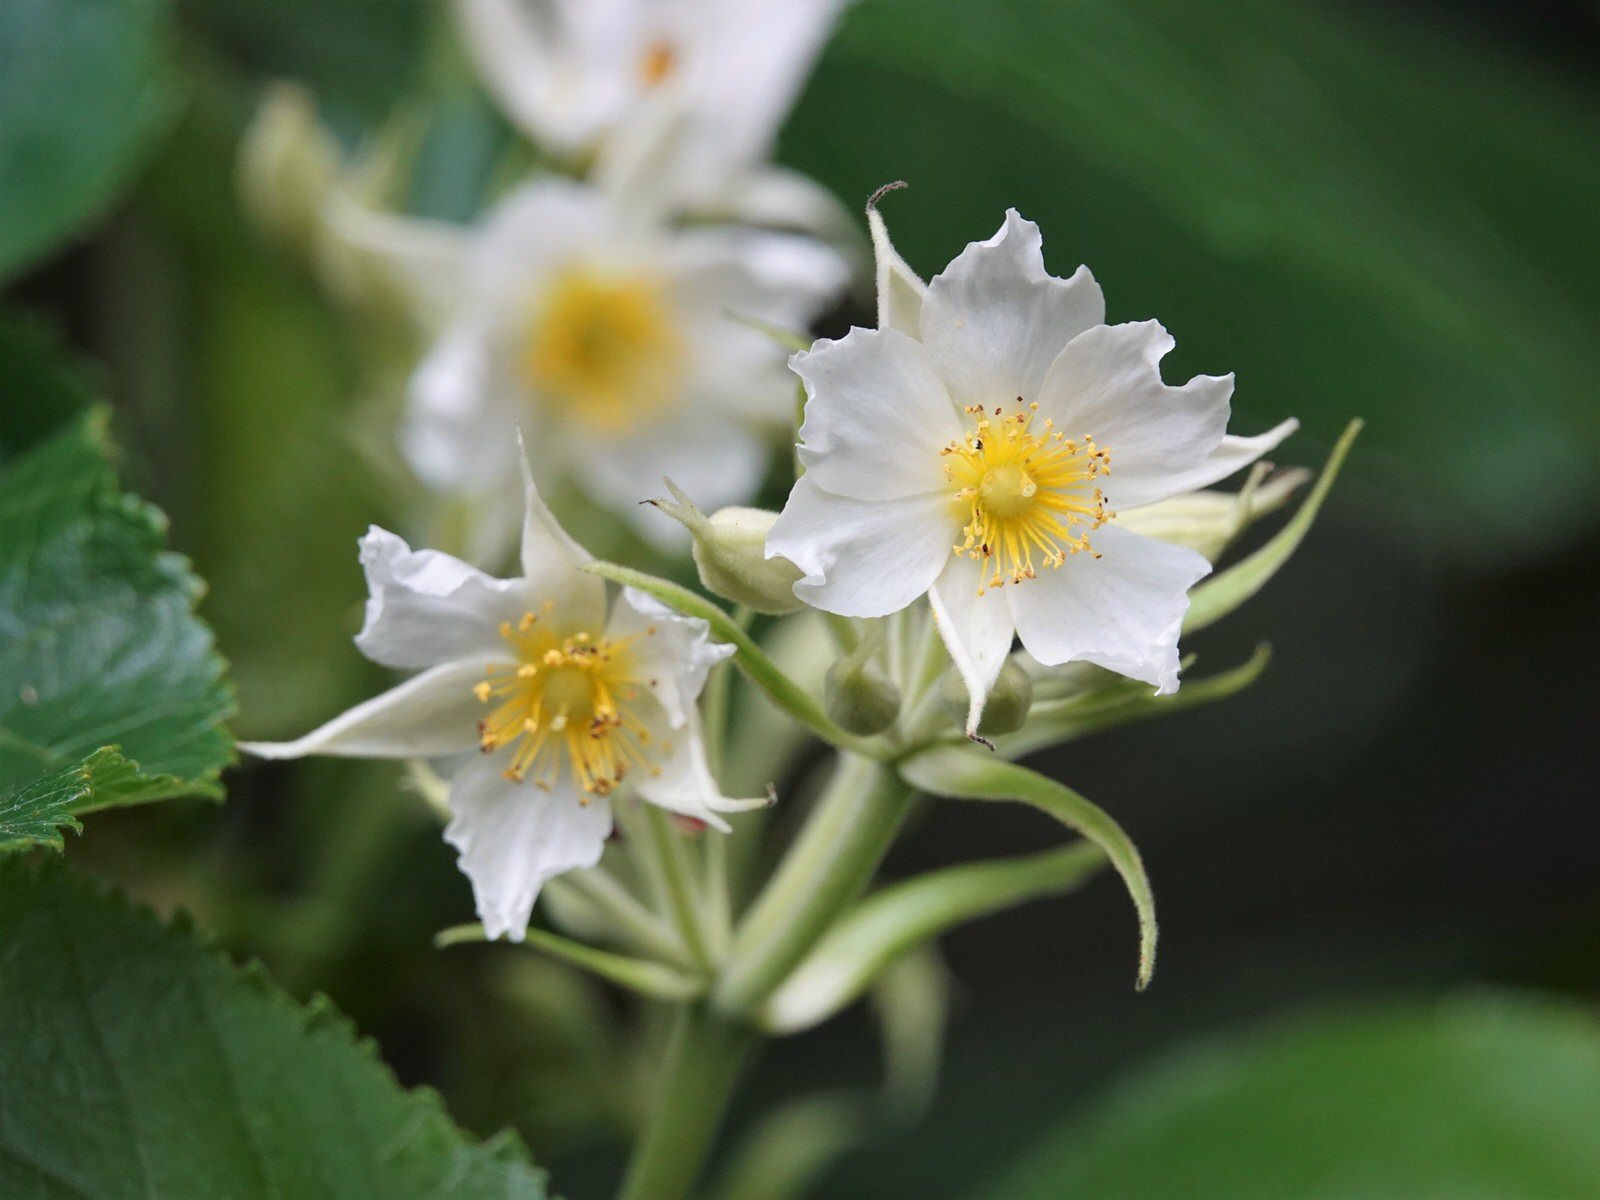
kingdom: Plantae
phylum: Tracheophyta
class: Magnoliopsida
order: Malvales
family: Malvaceae
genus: Entelea
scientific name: Entelea arborescens
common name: New zealand-mulberry
